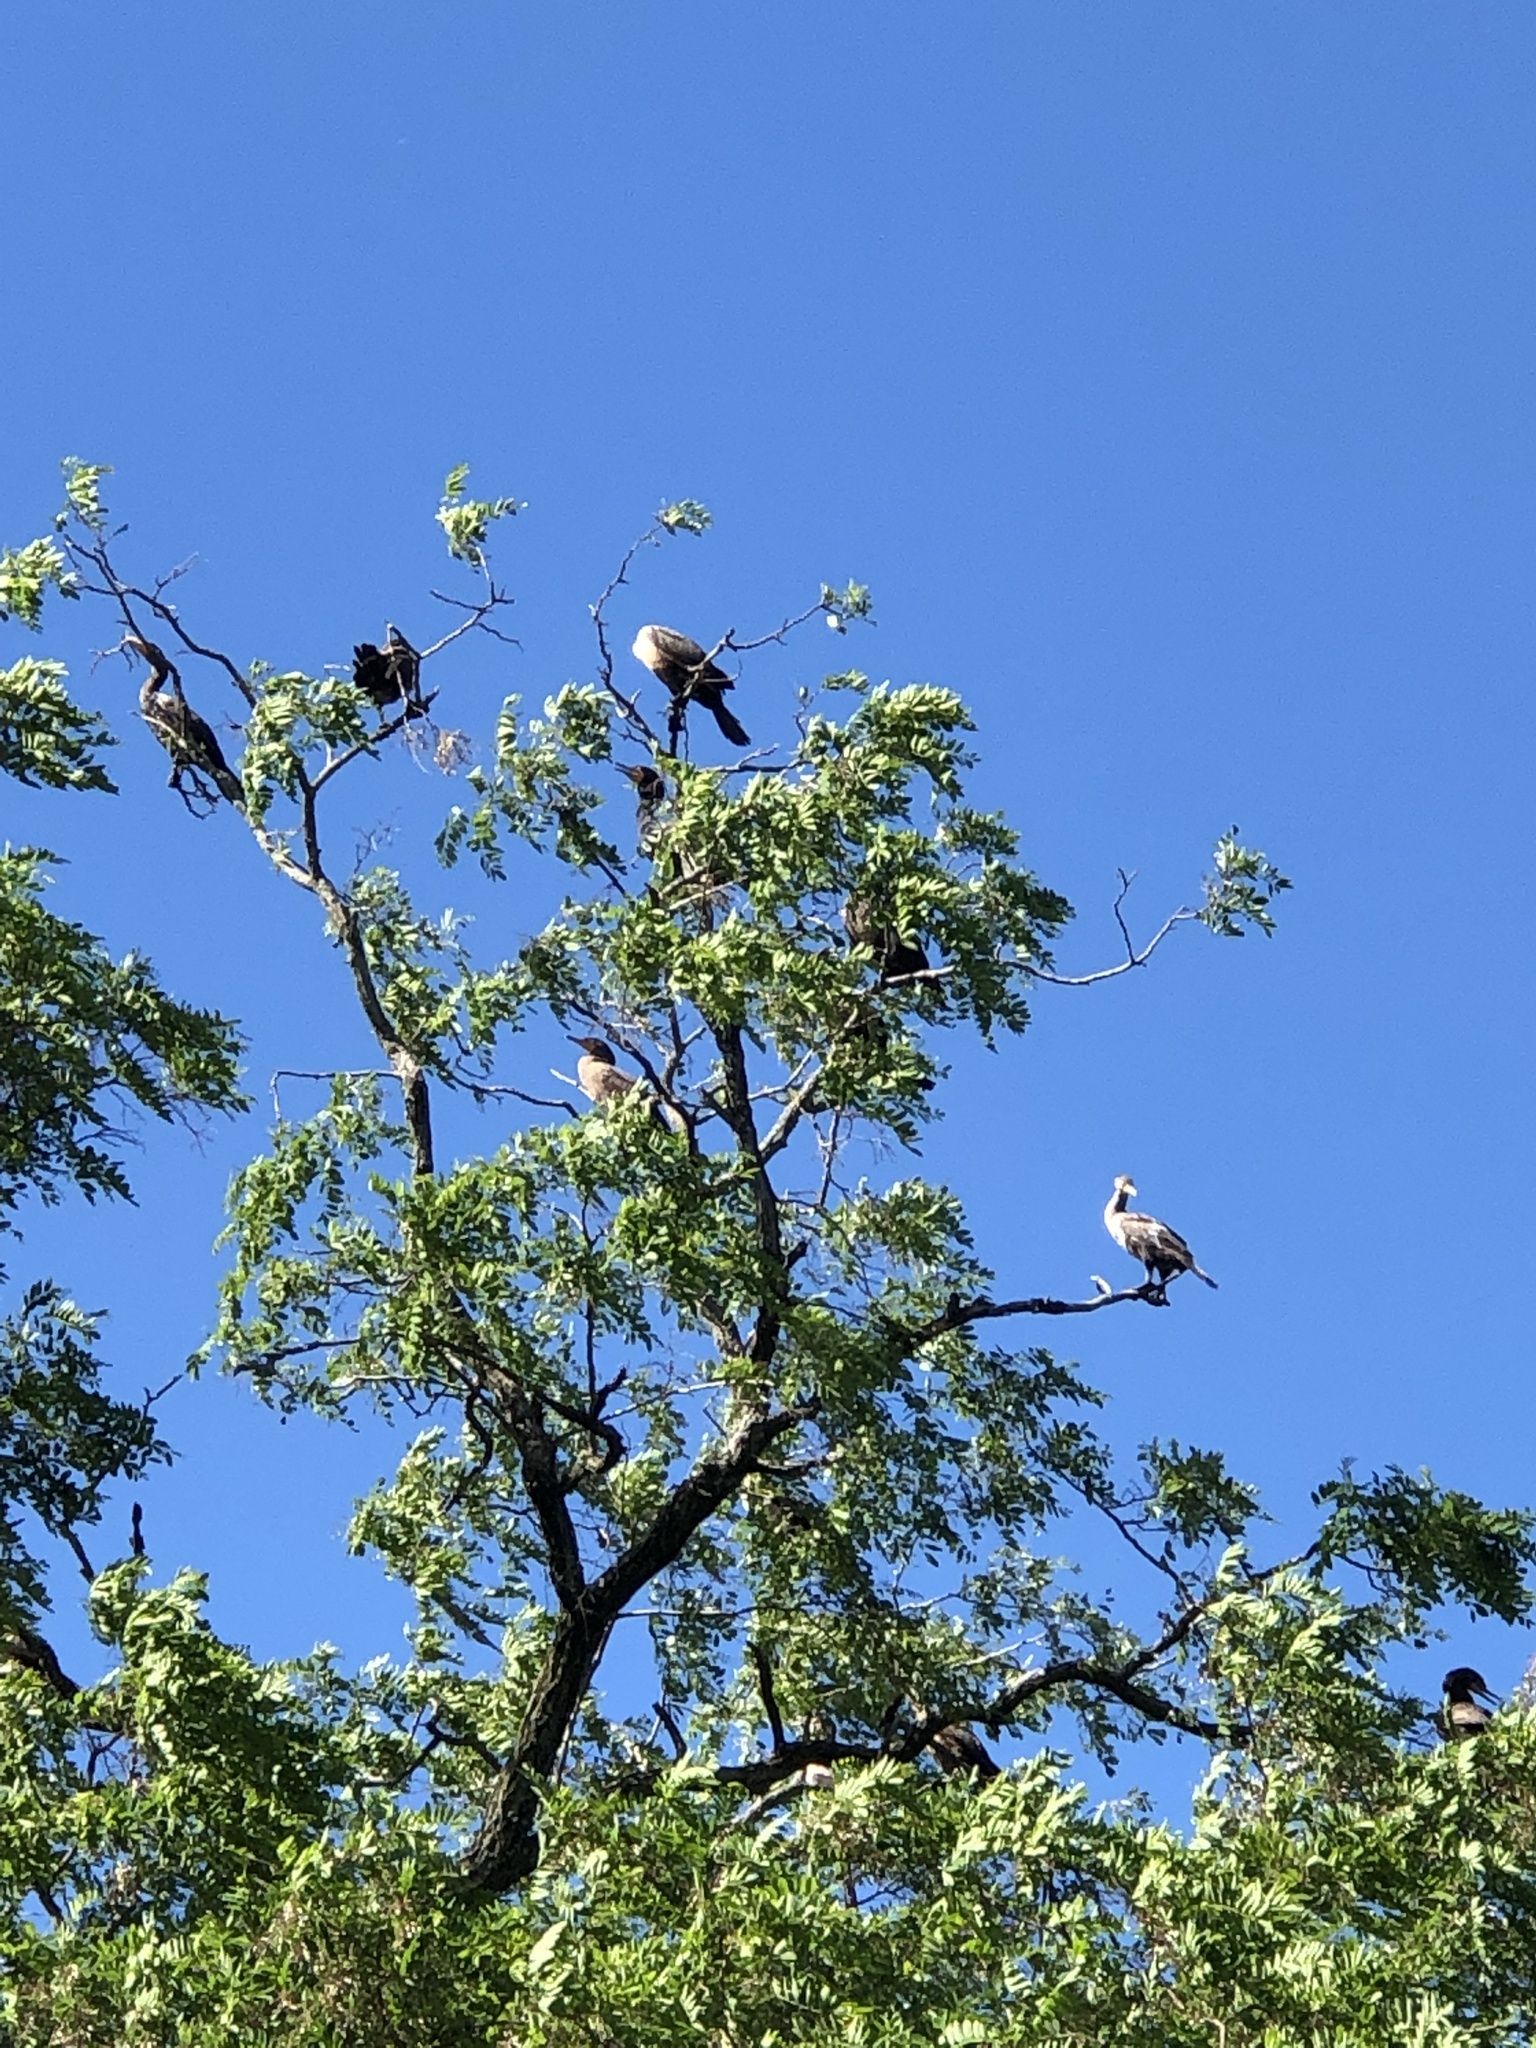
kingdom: Animalia
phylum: Chordata
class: Aves
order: Suliformes
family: Phalacrocoracidae
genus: Phalacrocorax
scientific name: Phalacrocorax auritus
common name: Double-crested cormorant
